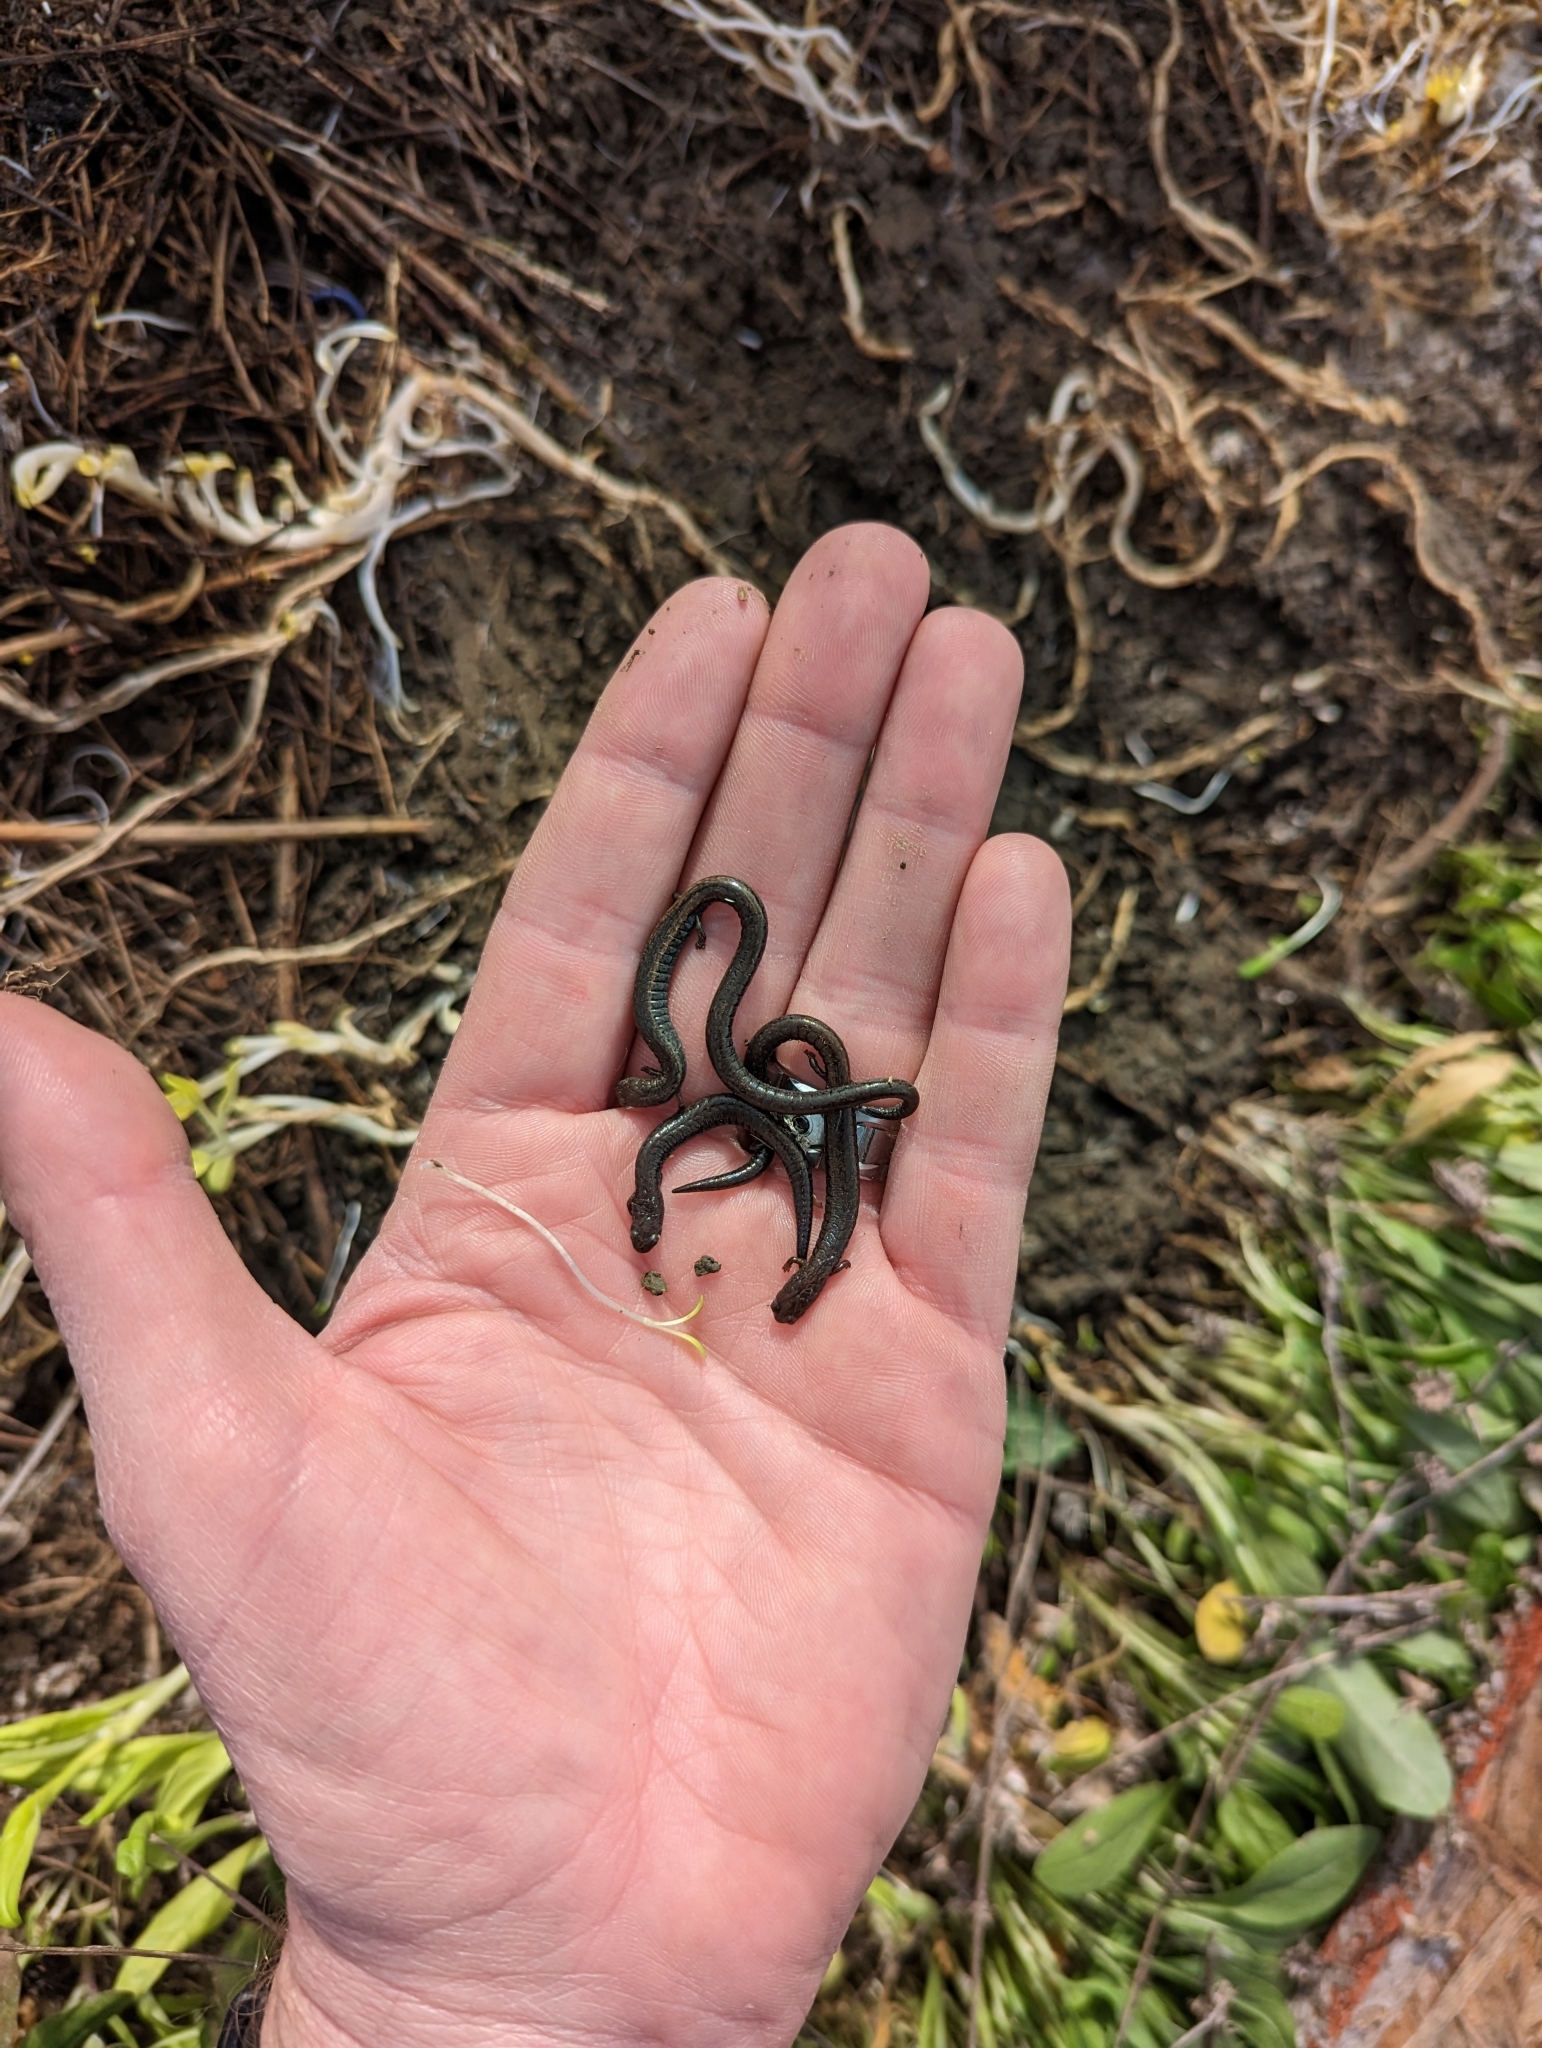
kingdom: Animalia
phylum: Chordata
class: Amphibia
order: Caudata
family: Plethodontidae
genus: Batrachoseps
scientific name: Batrachoseps nigriventris
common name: Black-bellied slender salamander
